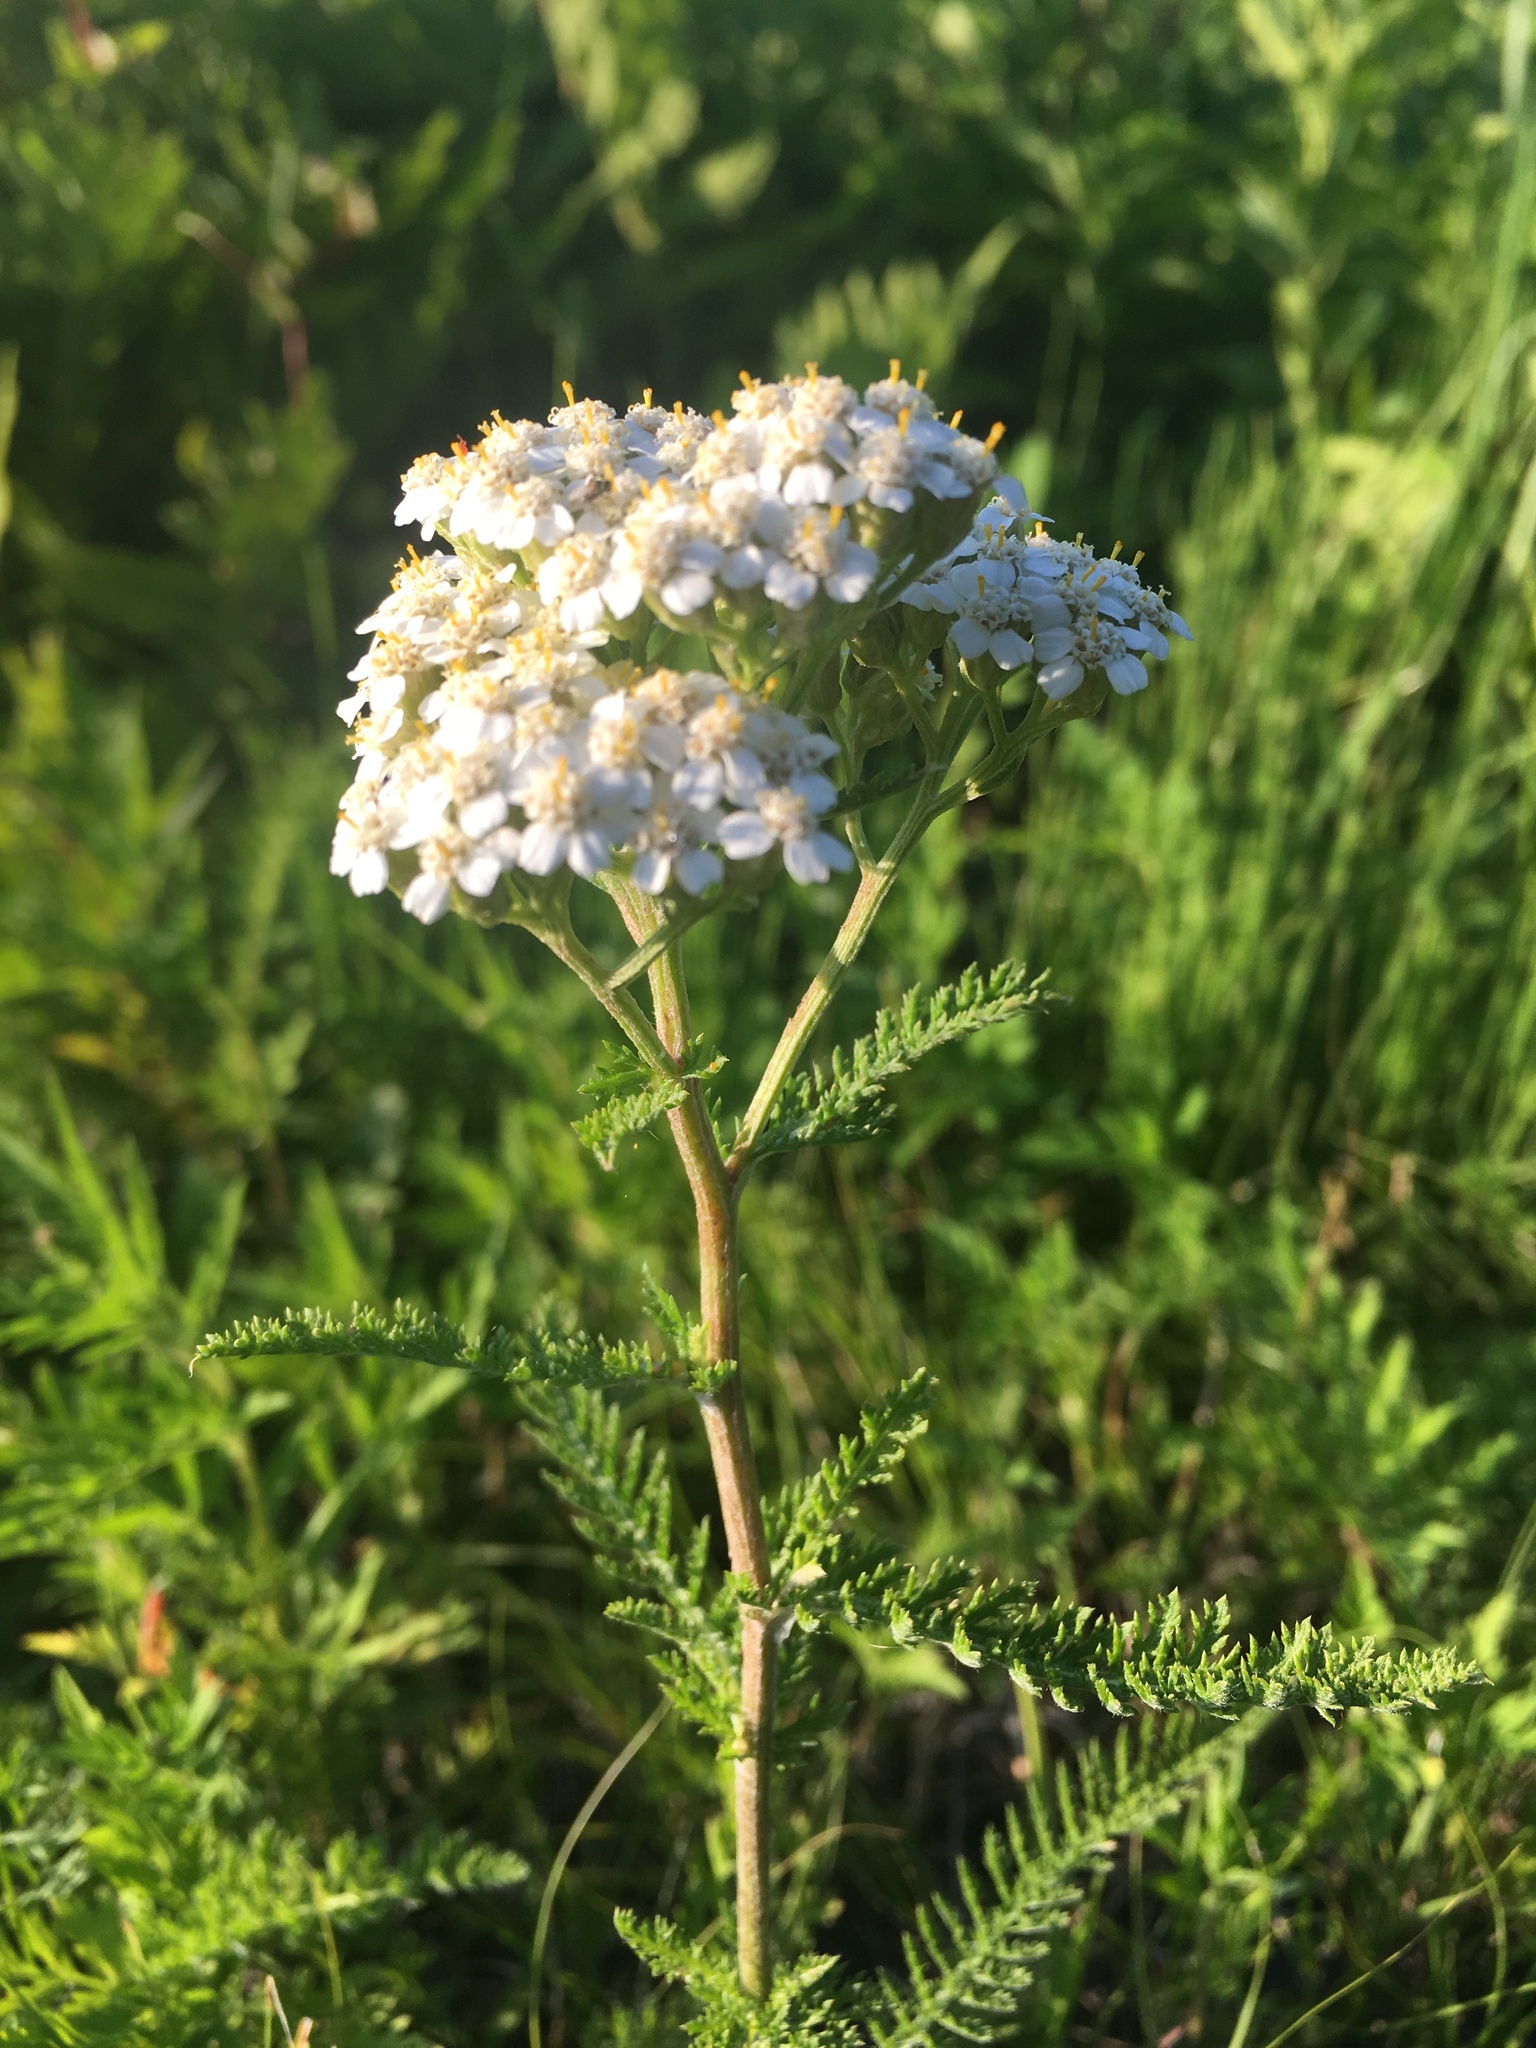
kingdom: Plantae
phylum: Tracheophyta
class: Magnoliopsida
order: Asterales
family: Asteraceae
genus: Achillea
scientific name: Achillea millefolium
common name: Yarrow
